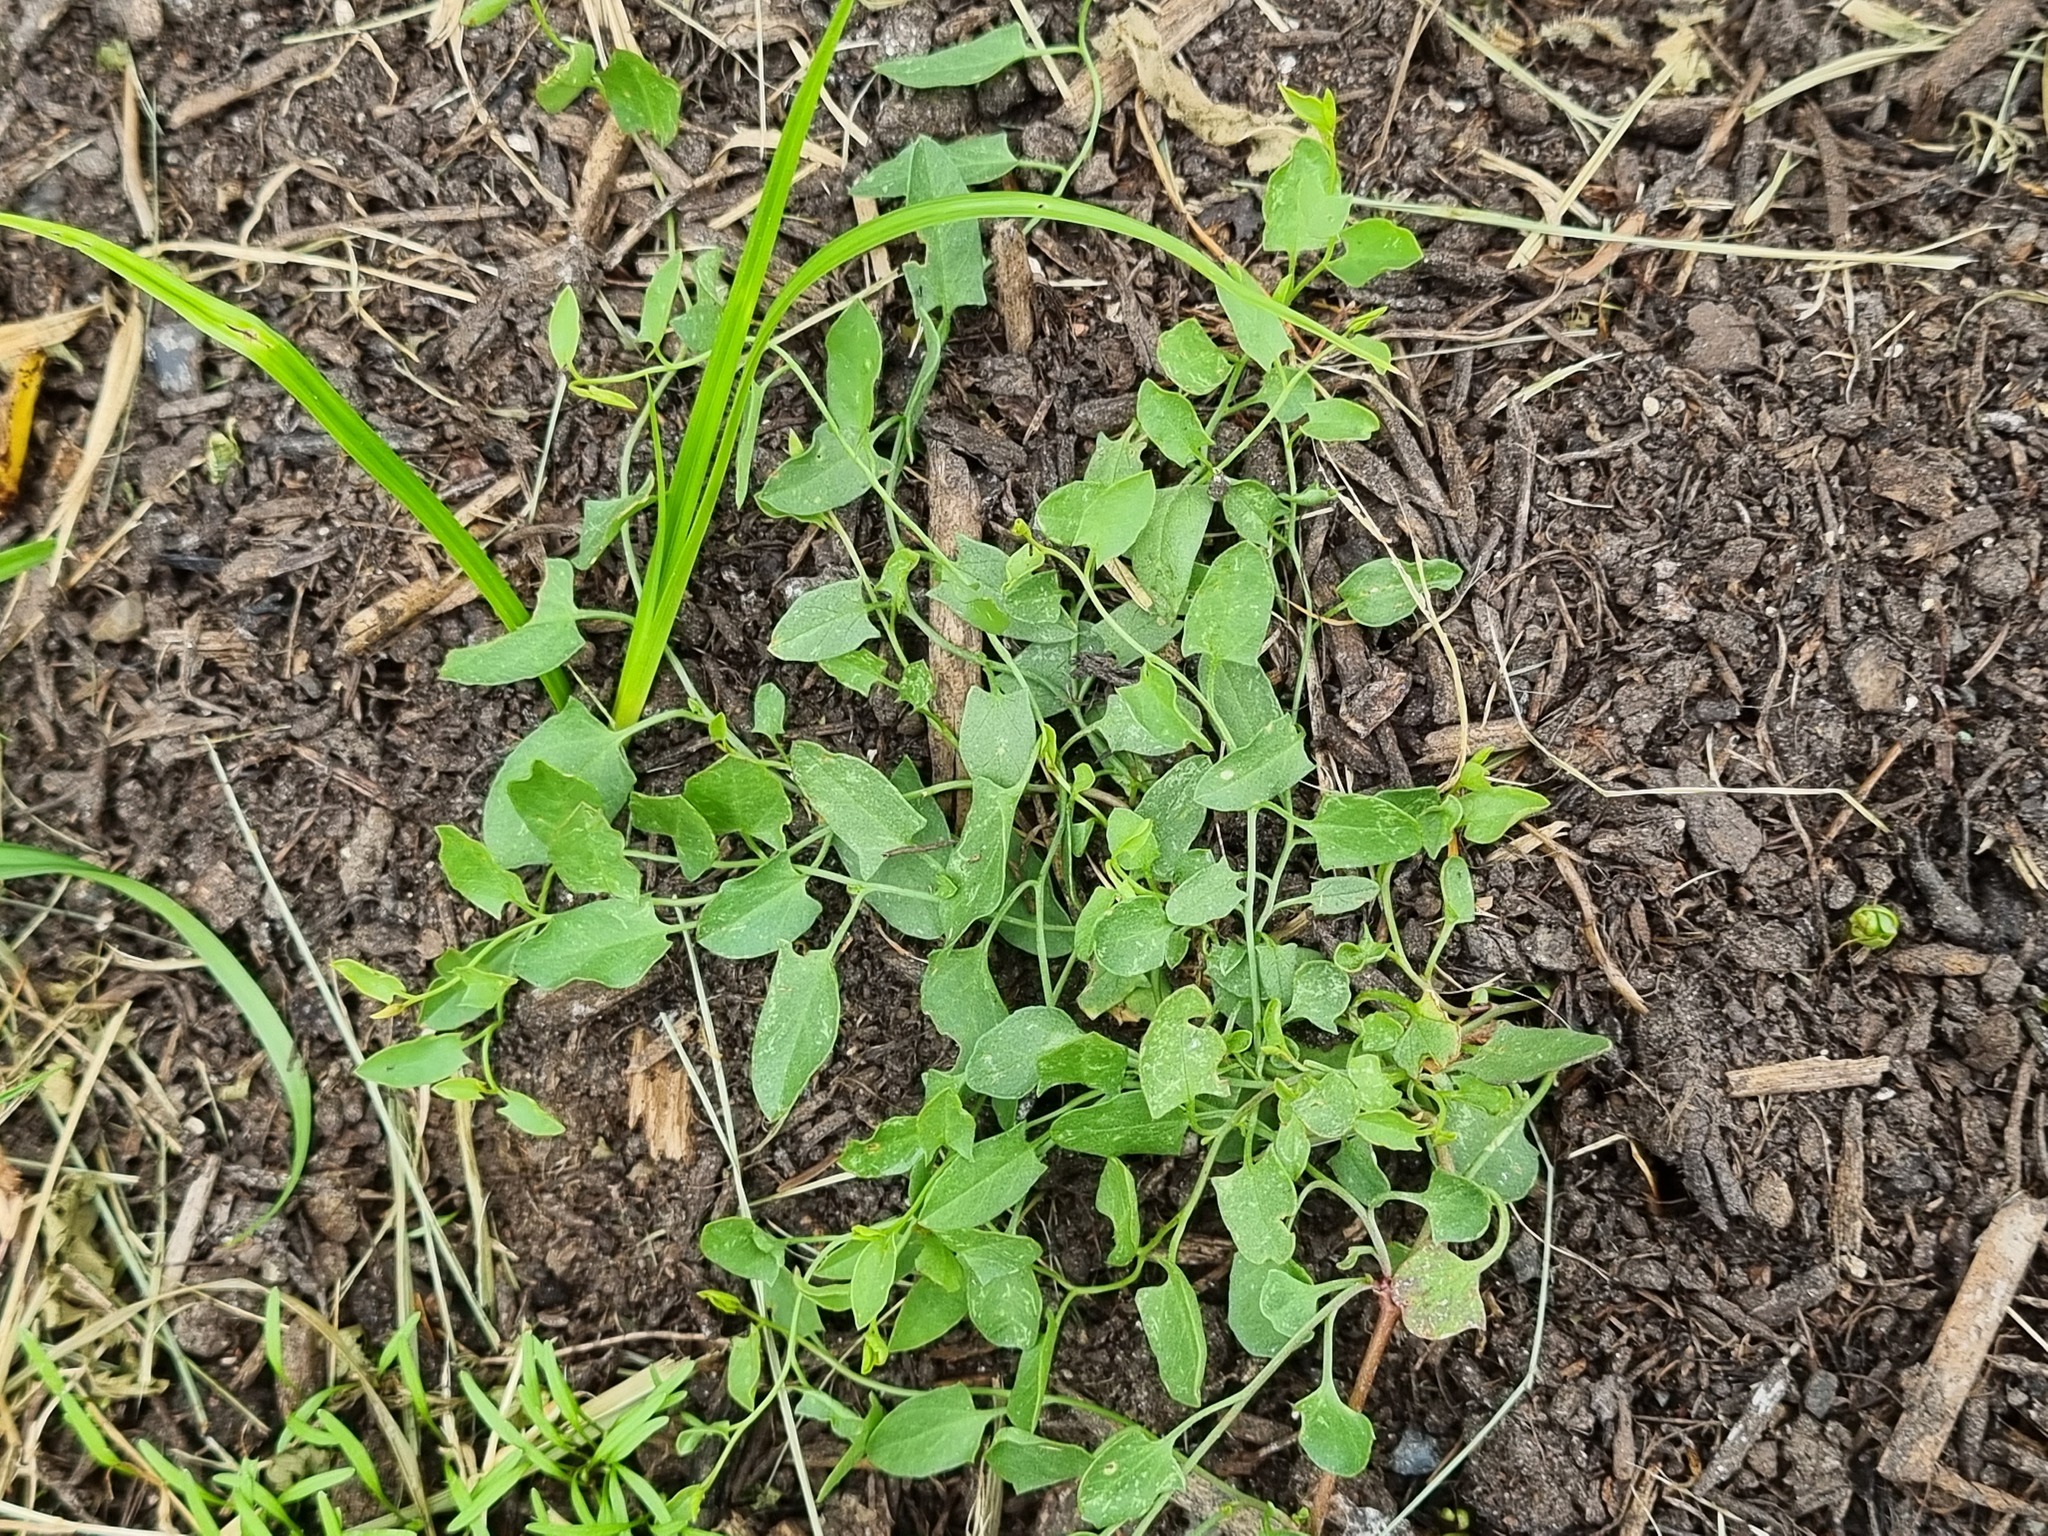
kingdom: Plantae
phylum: Tracheophyta
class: Magnoliopsida
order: Solanales
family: Convolvulaceae
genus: Convolvulus
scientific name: Convolvulus arvensis
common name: Field bindweed
